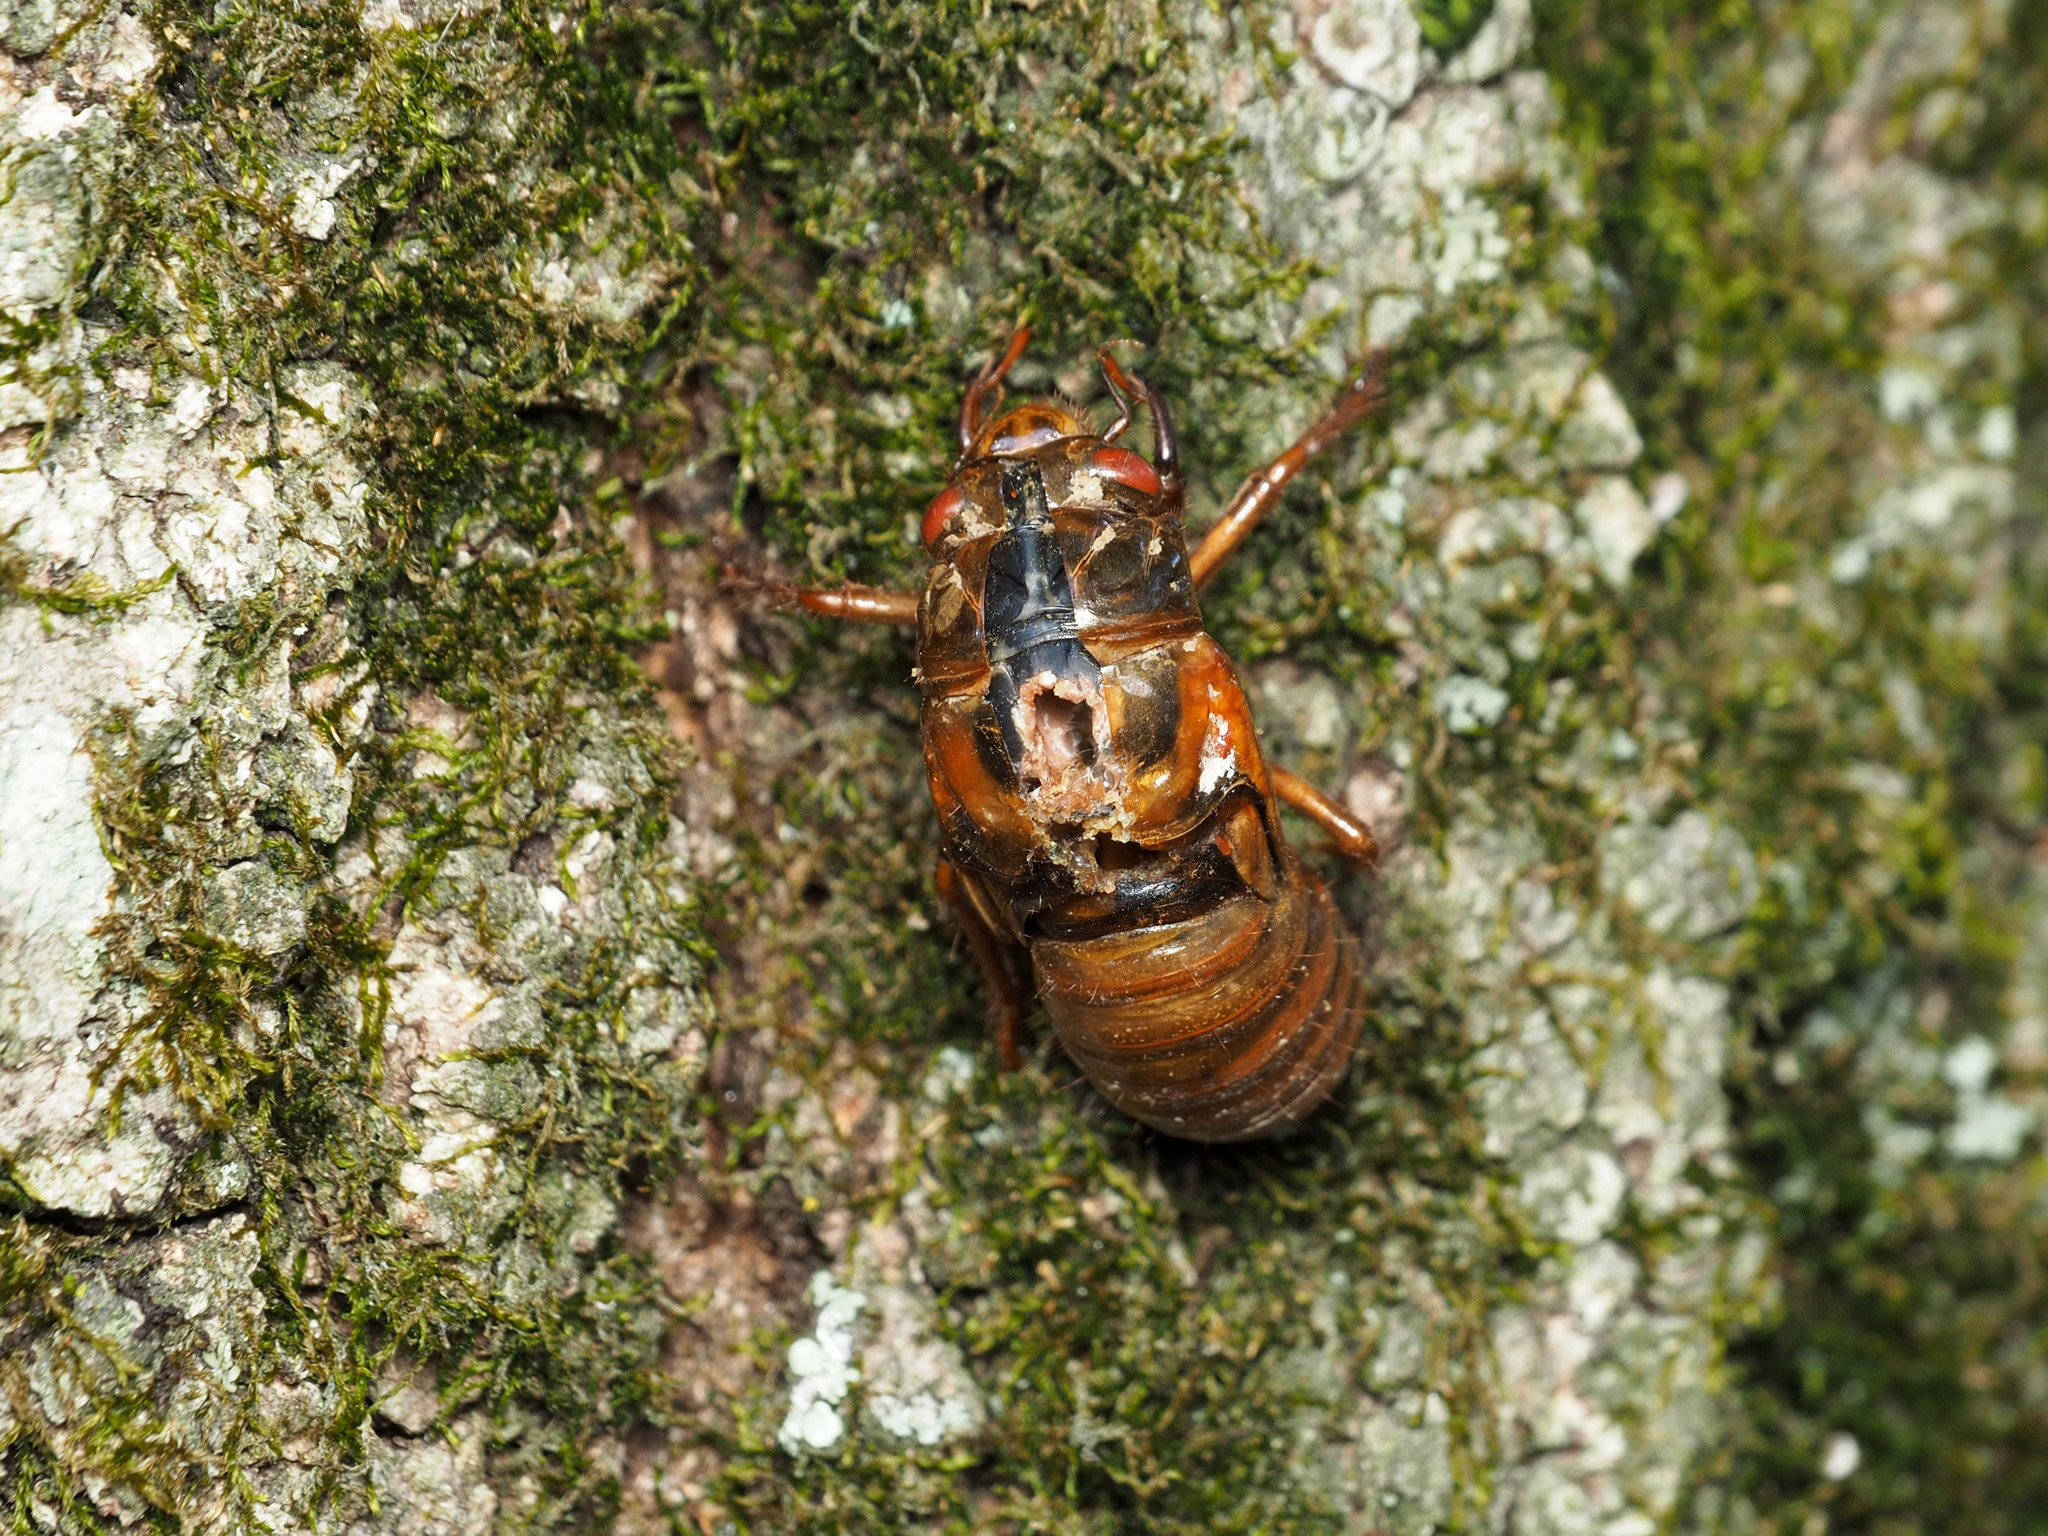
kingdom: Animalia
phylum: Arthropoda
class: Insecta
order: Hemiptera
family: Cicadidae
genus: Magicicada
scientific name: Magicicada
